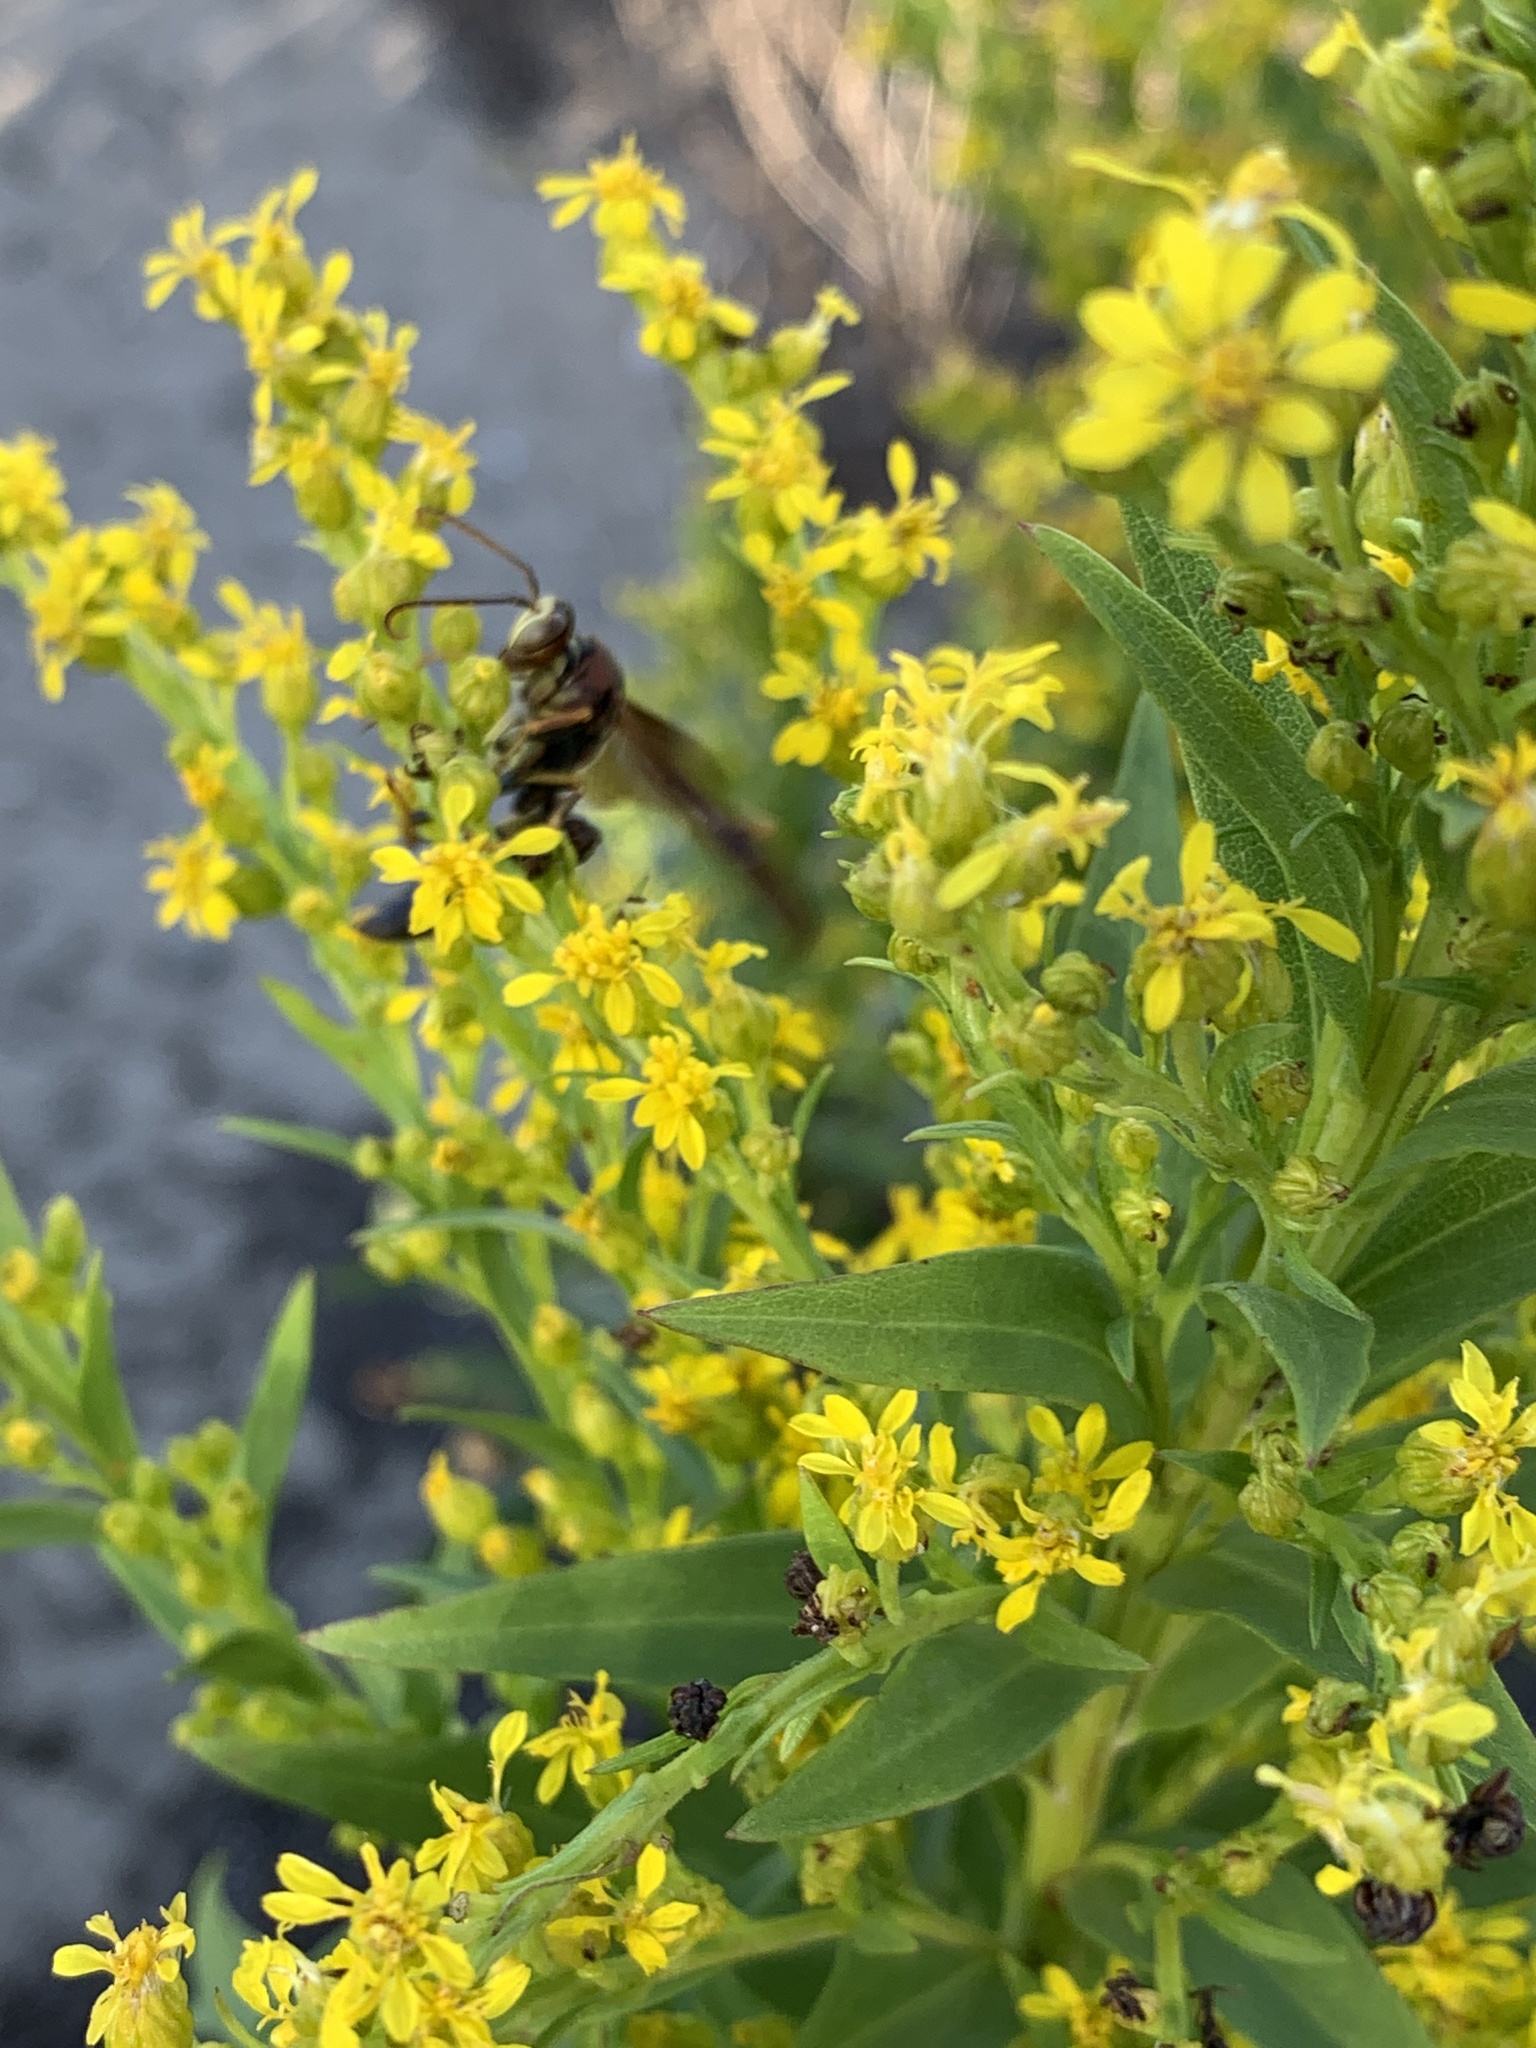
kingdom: Animalia
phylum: Arthropoda
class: Insecta
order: Hymenoptera
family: Eumenidae
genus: Polistes
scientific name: Polistes metricus
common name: Metric paper wasp
